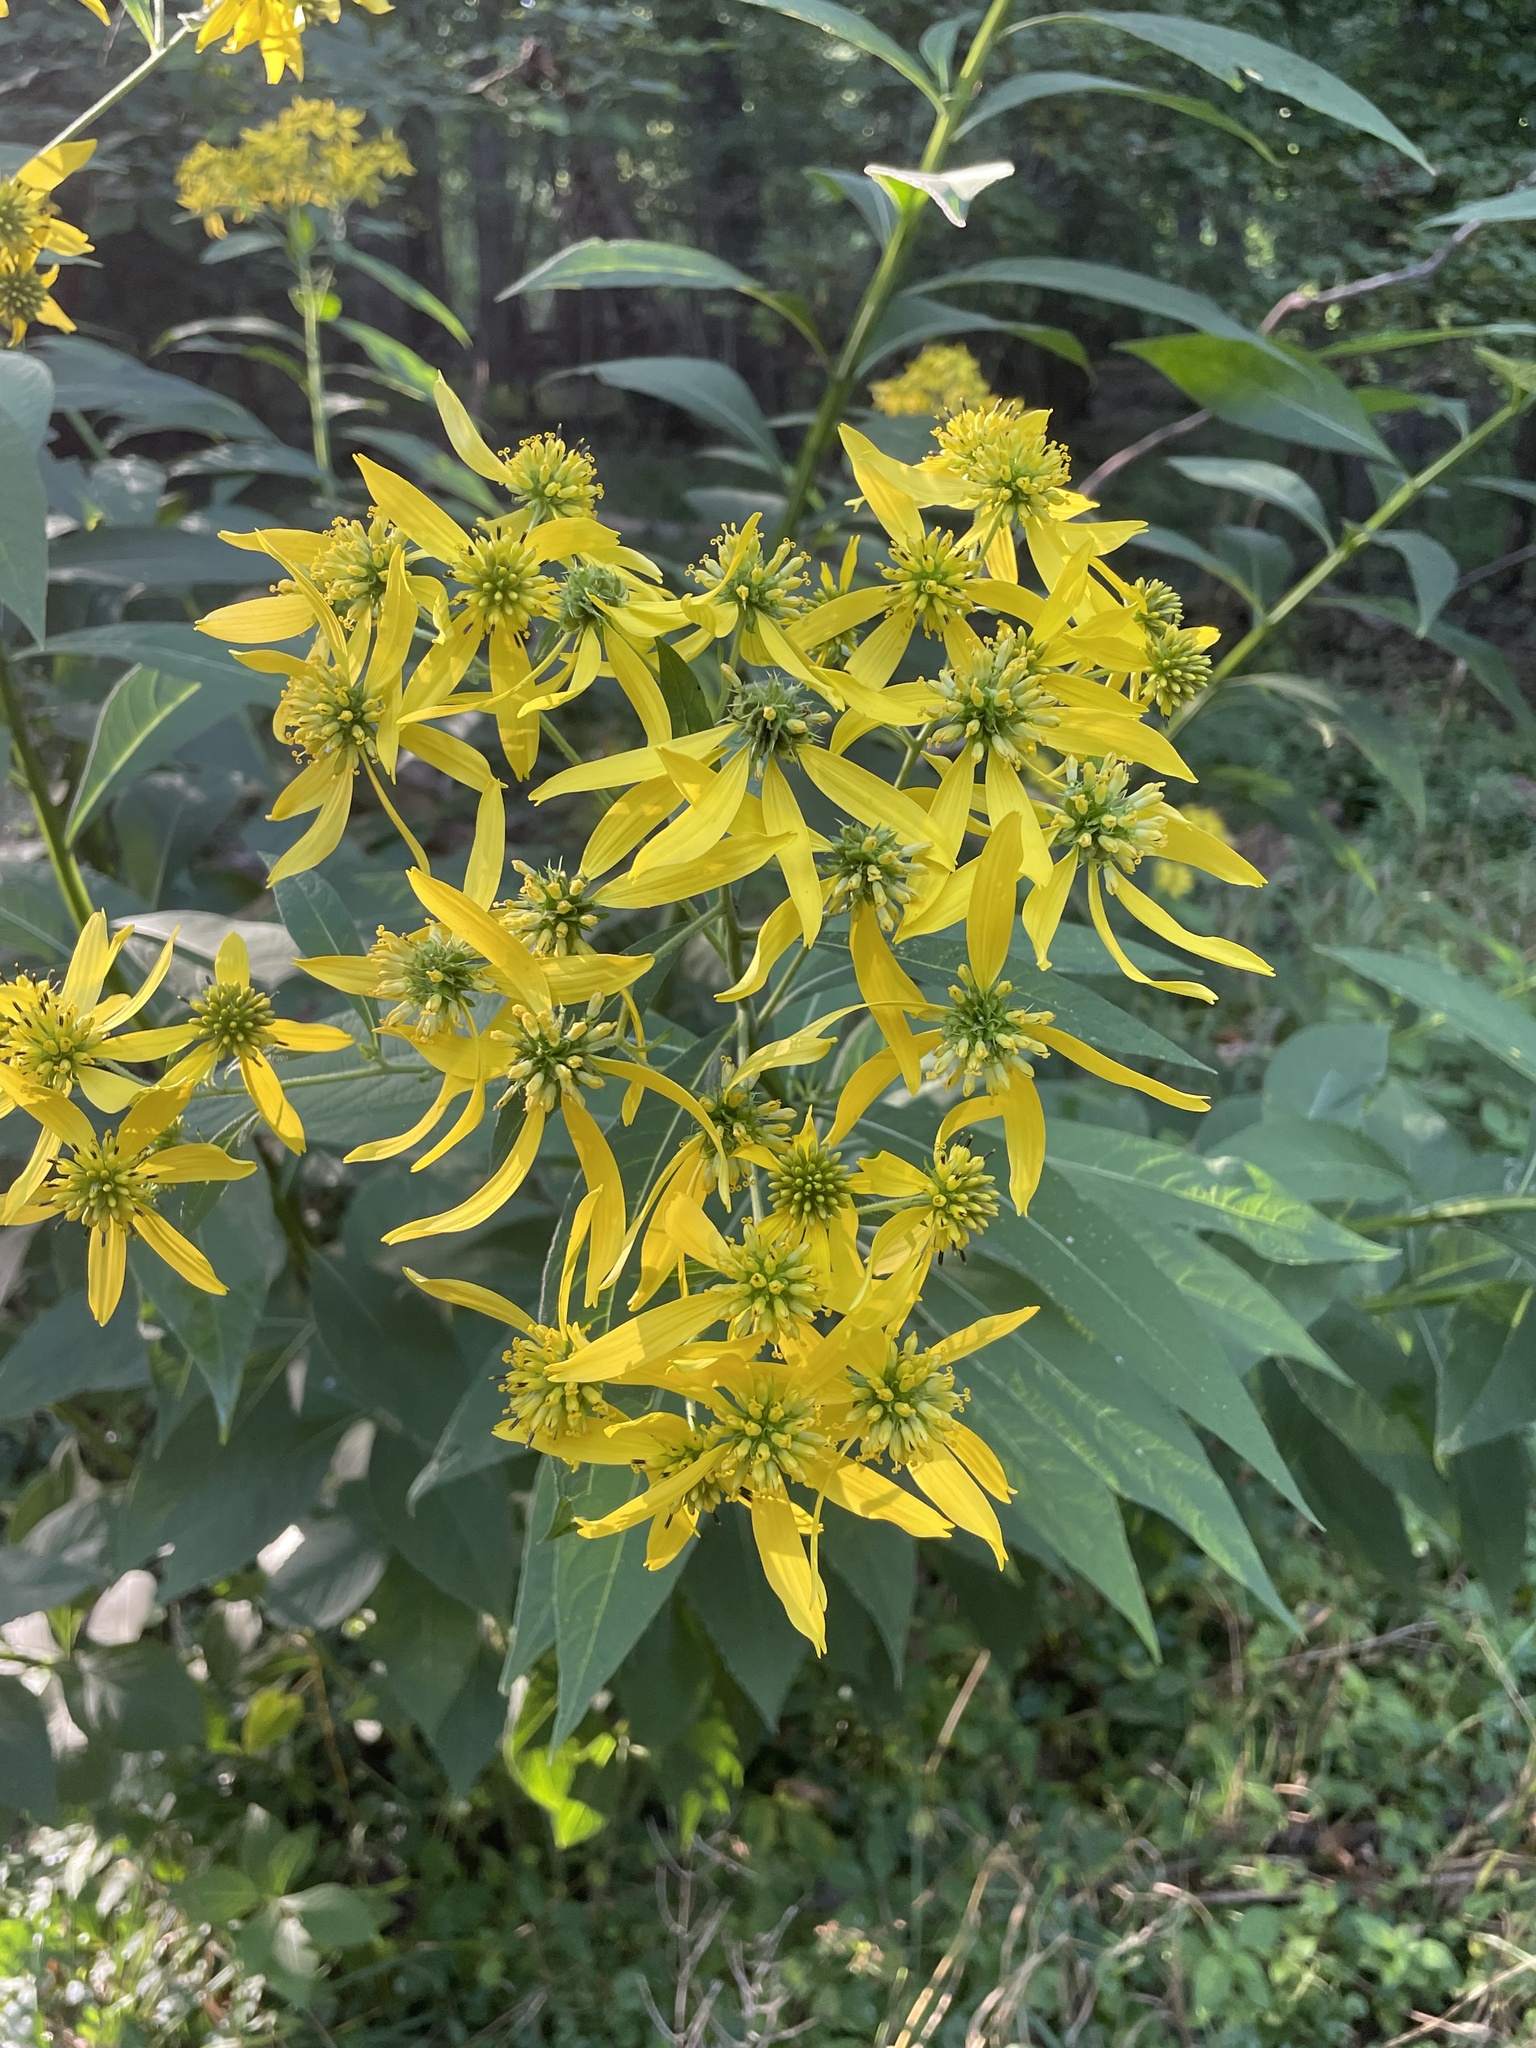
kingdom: Plantae
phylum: Tracheophyta
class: Magnoliopsida
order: Asterales
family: Asteraceae
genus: Verbesina
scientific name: Verbesina alternifolia
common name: Wingstem
